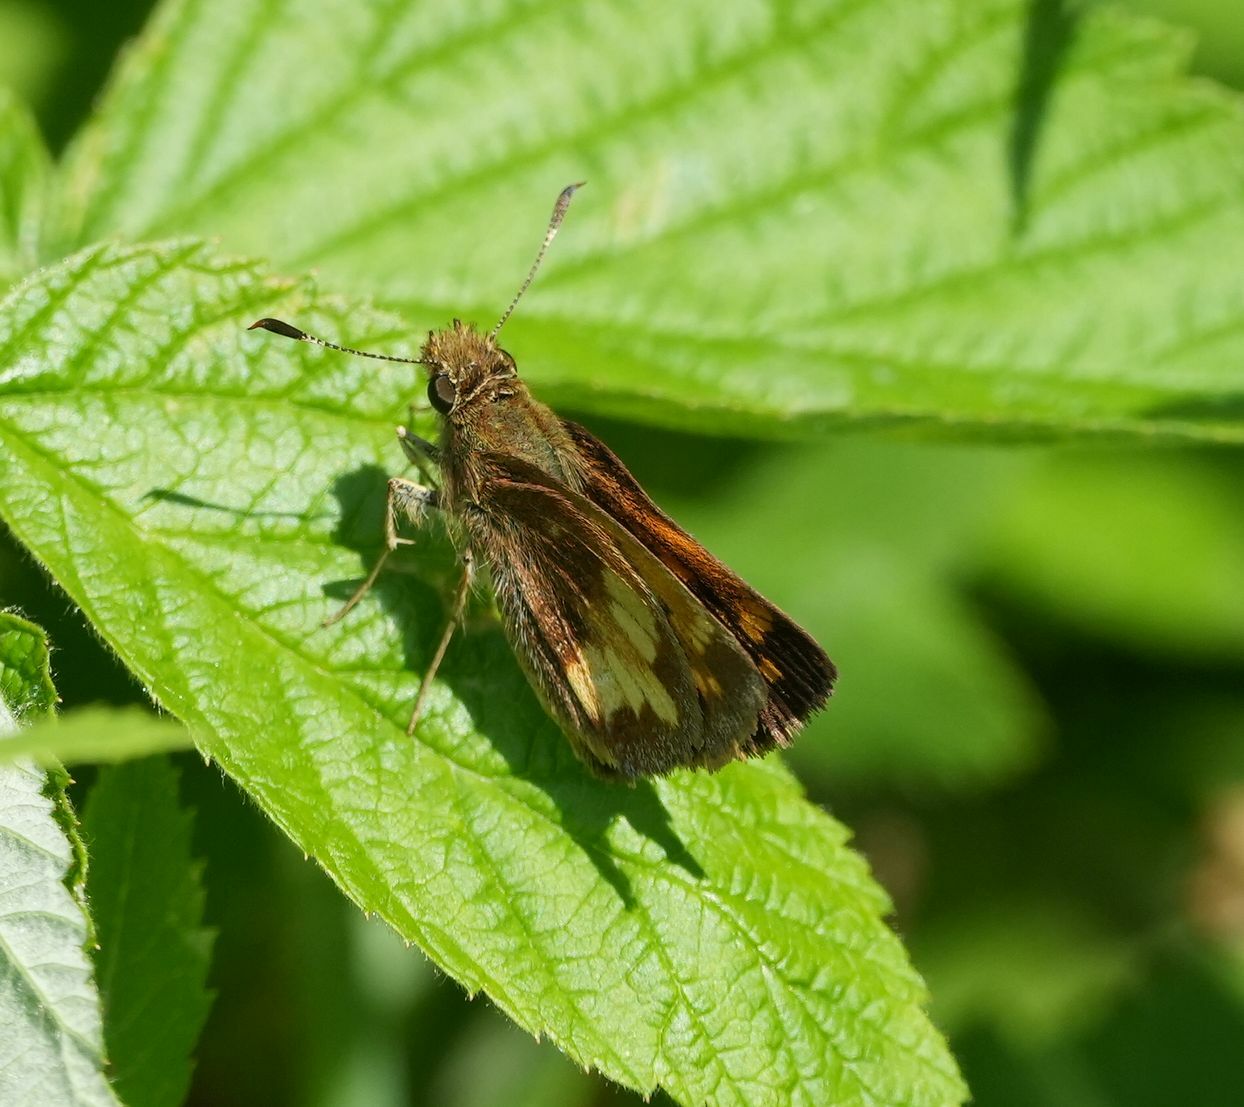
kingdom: Animalia
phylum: Arthropoda
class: Insecta
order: Lepidoptera
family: Hesperiidae
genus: Lon
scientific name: Lon hobomok
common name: Hobomok skipper
